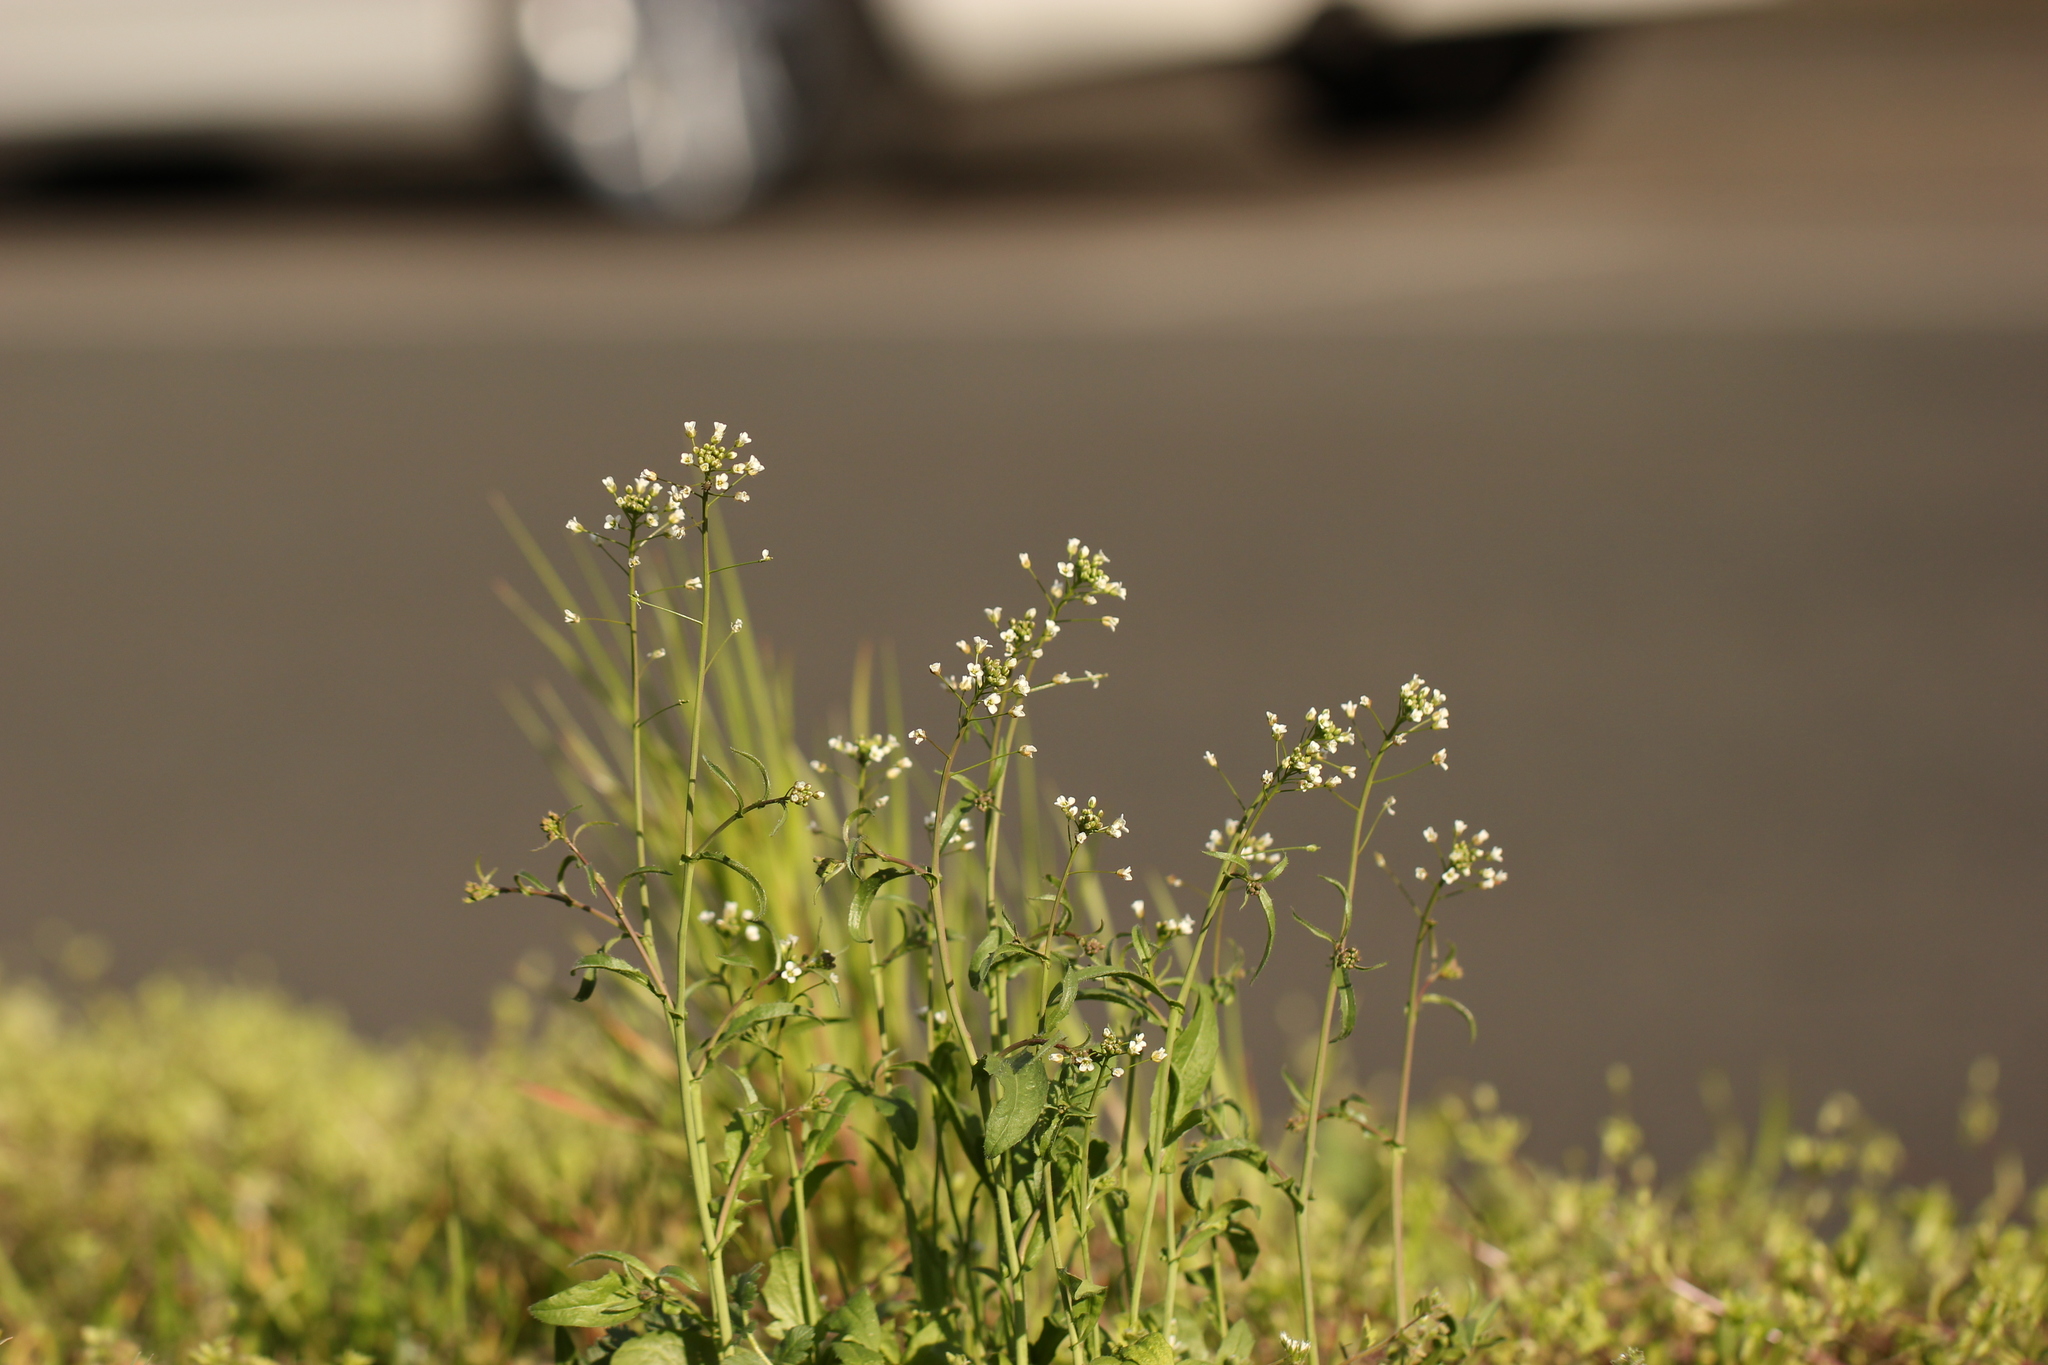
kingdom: Plantae
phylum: Tracheophyta
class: Magnoliopsida
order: Brassicales
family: Brassicaceae
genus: Capsella
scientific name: Capsella bursa-pastoris
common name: Shepherd's purse
